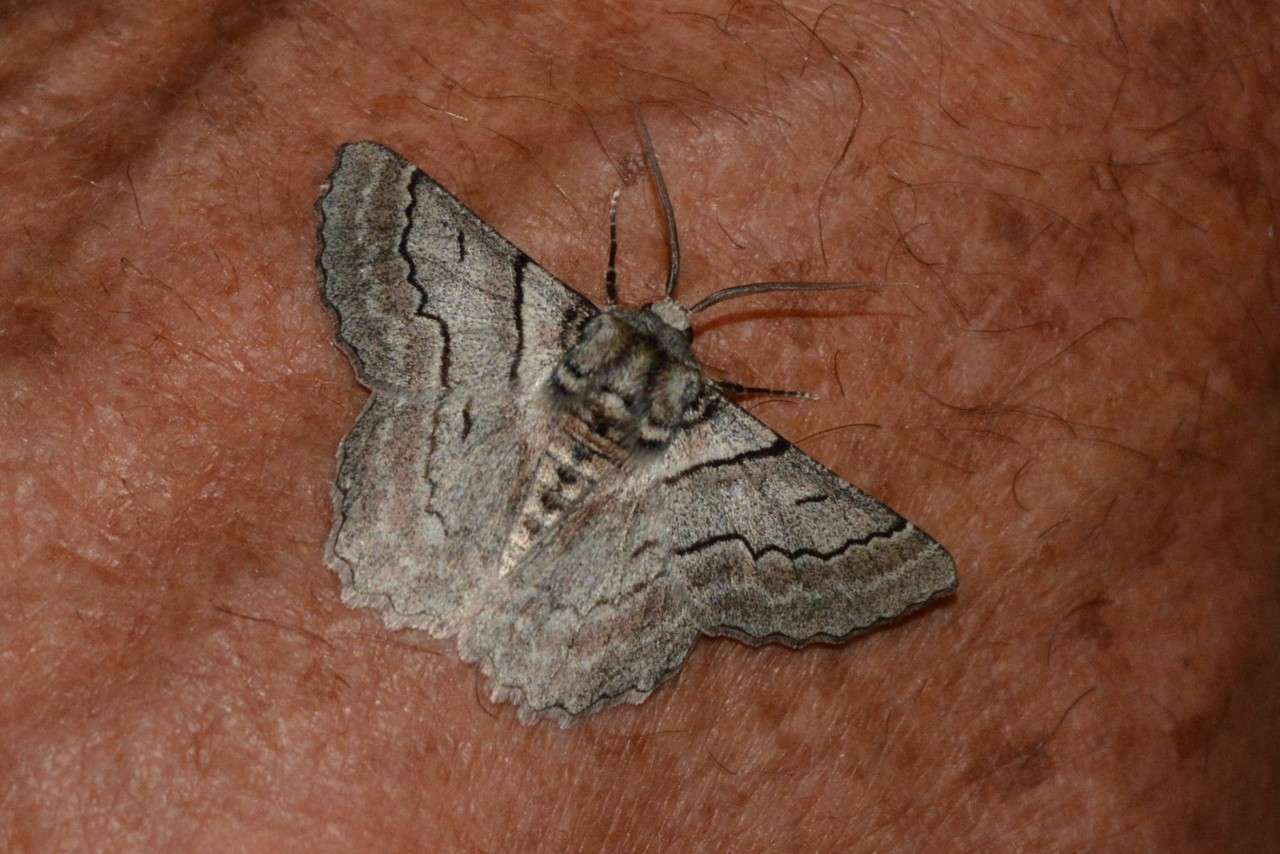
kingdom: Animalia
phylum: Arthropoda
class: Insecta
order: Lepidoptera
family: Geometridae
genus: Hypobapta
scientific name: Hypobapta tachyhalotaria
